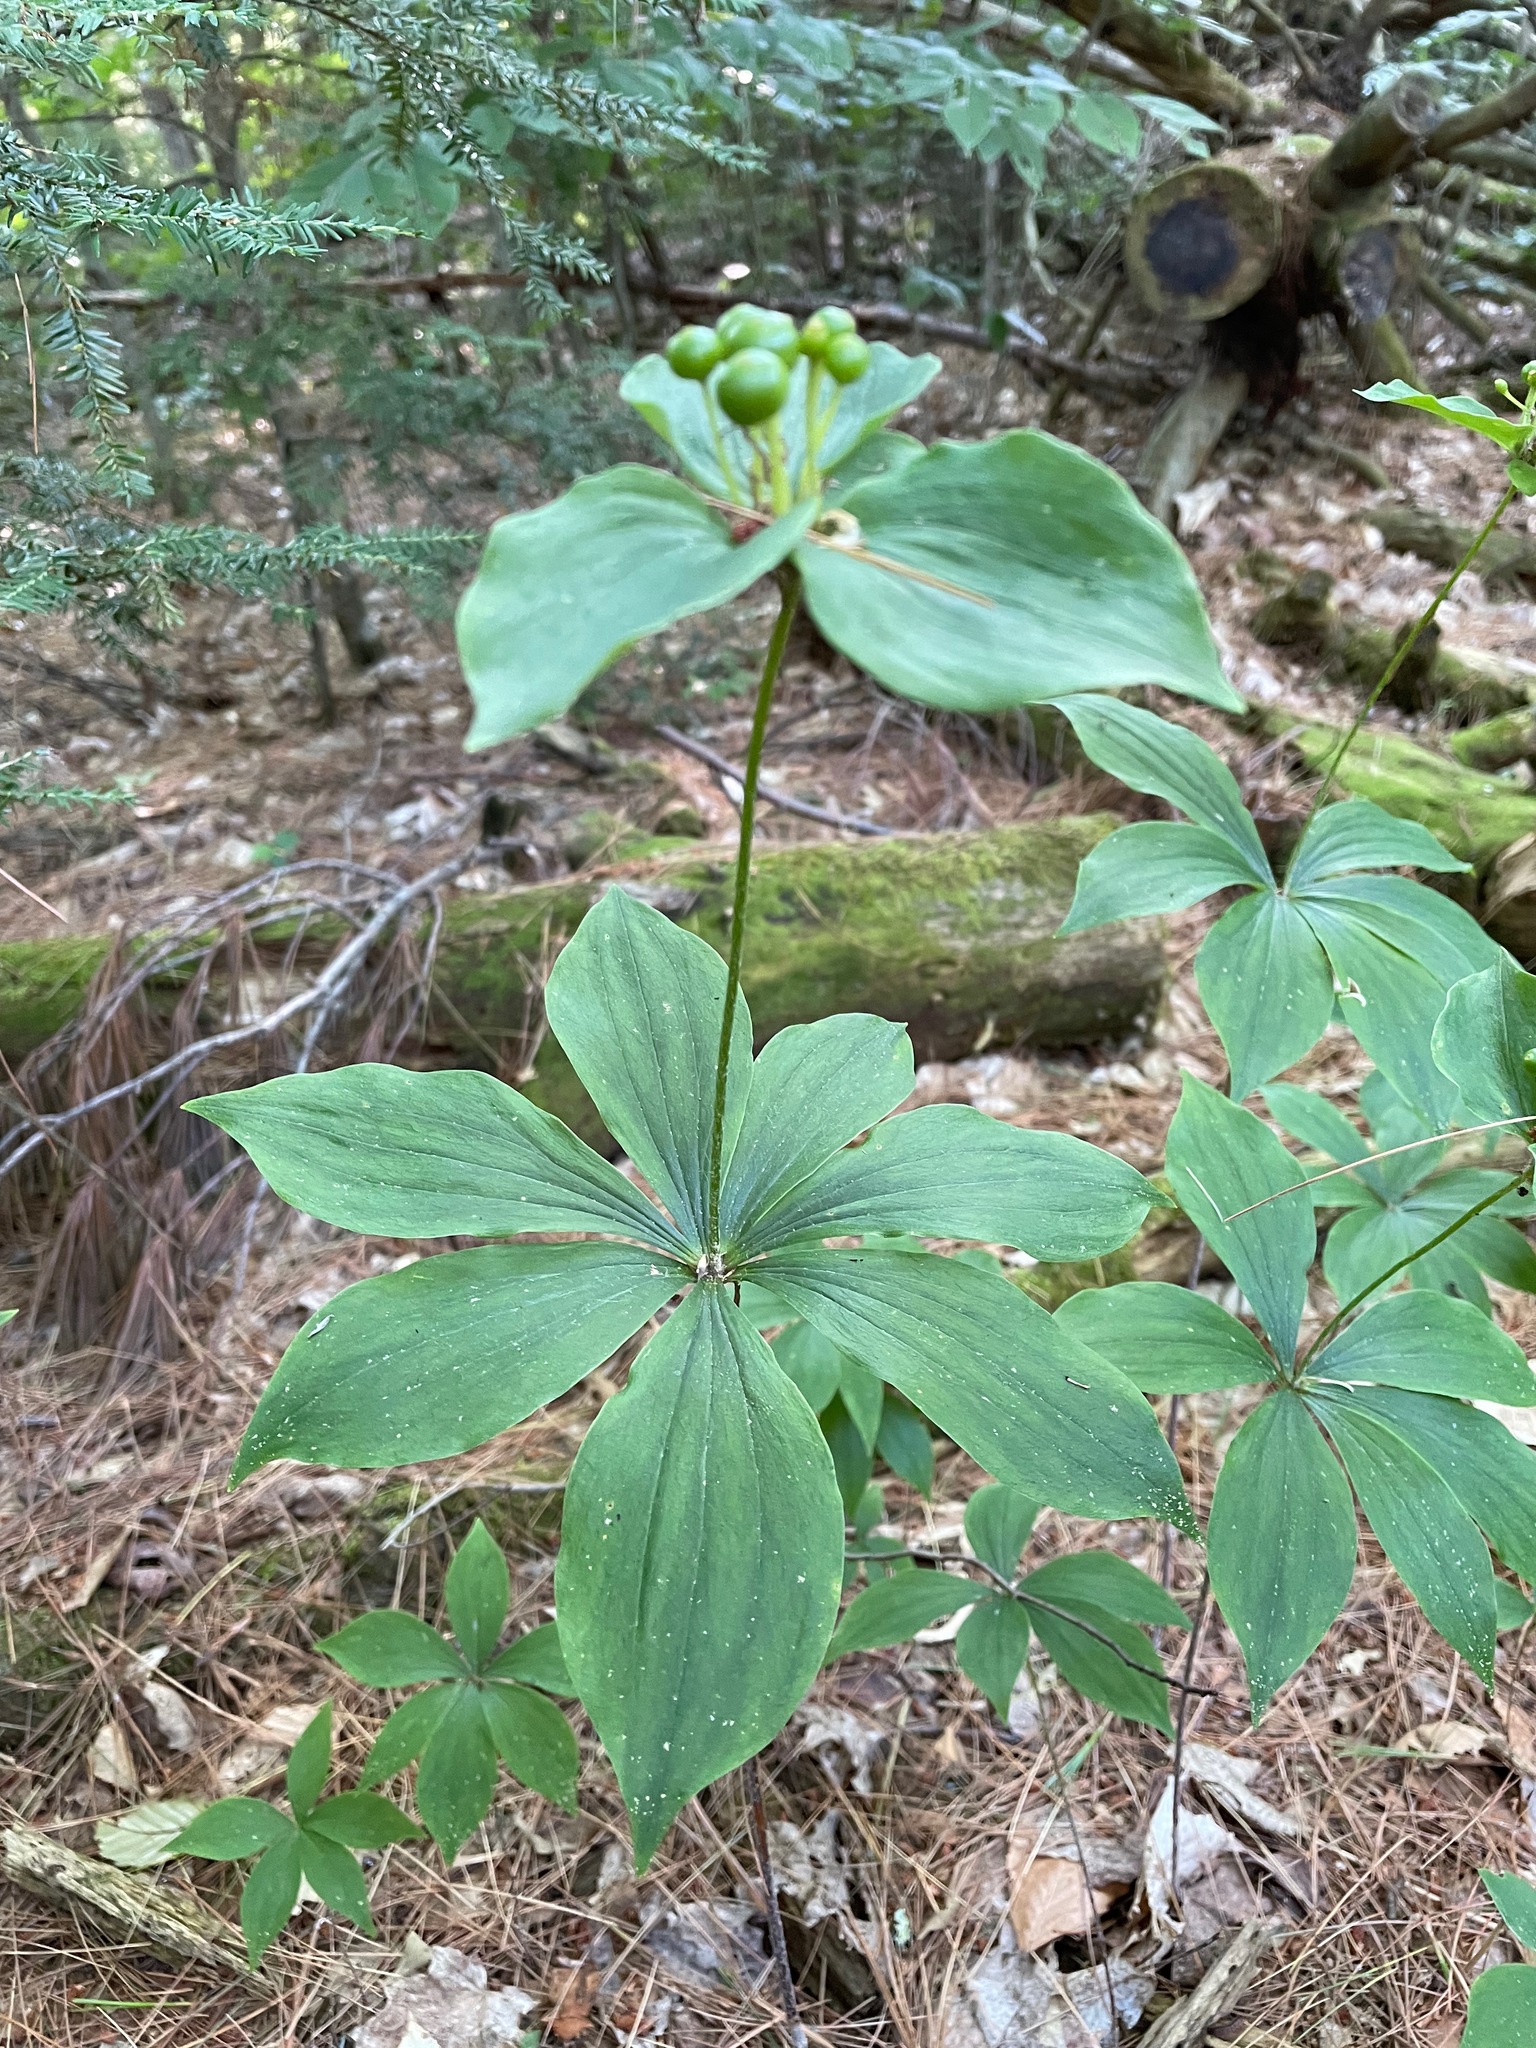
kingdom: Plantae
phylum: Tracheophyta
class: Liliopsida
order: Liliales
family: Liliaceae
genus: Medeola
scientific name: Medeola virginiana
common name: Indian cucumber-root
